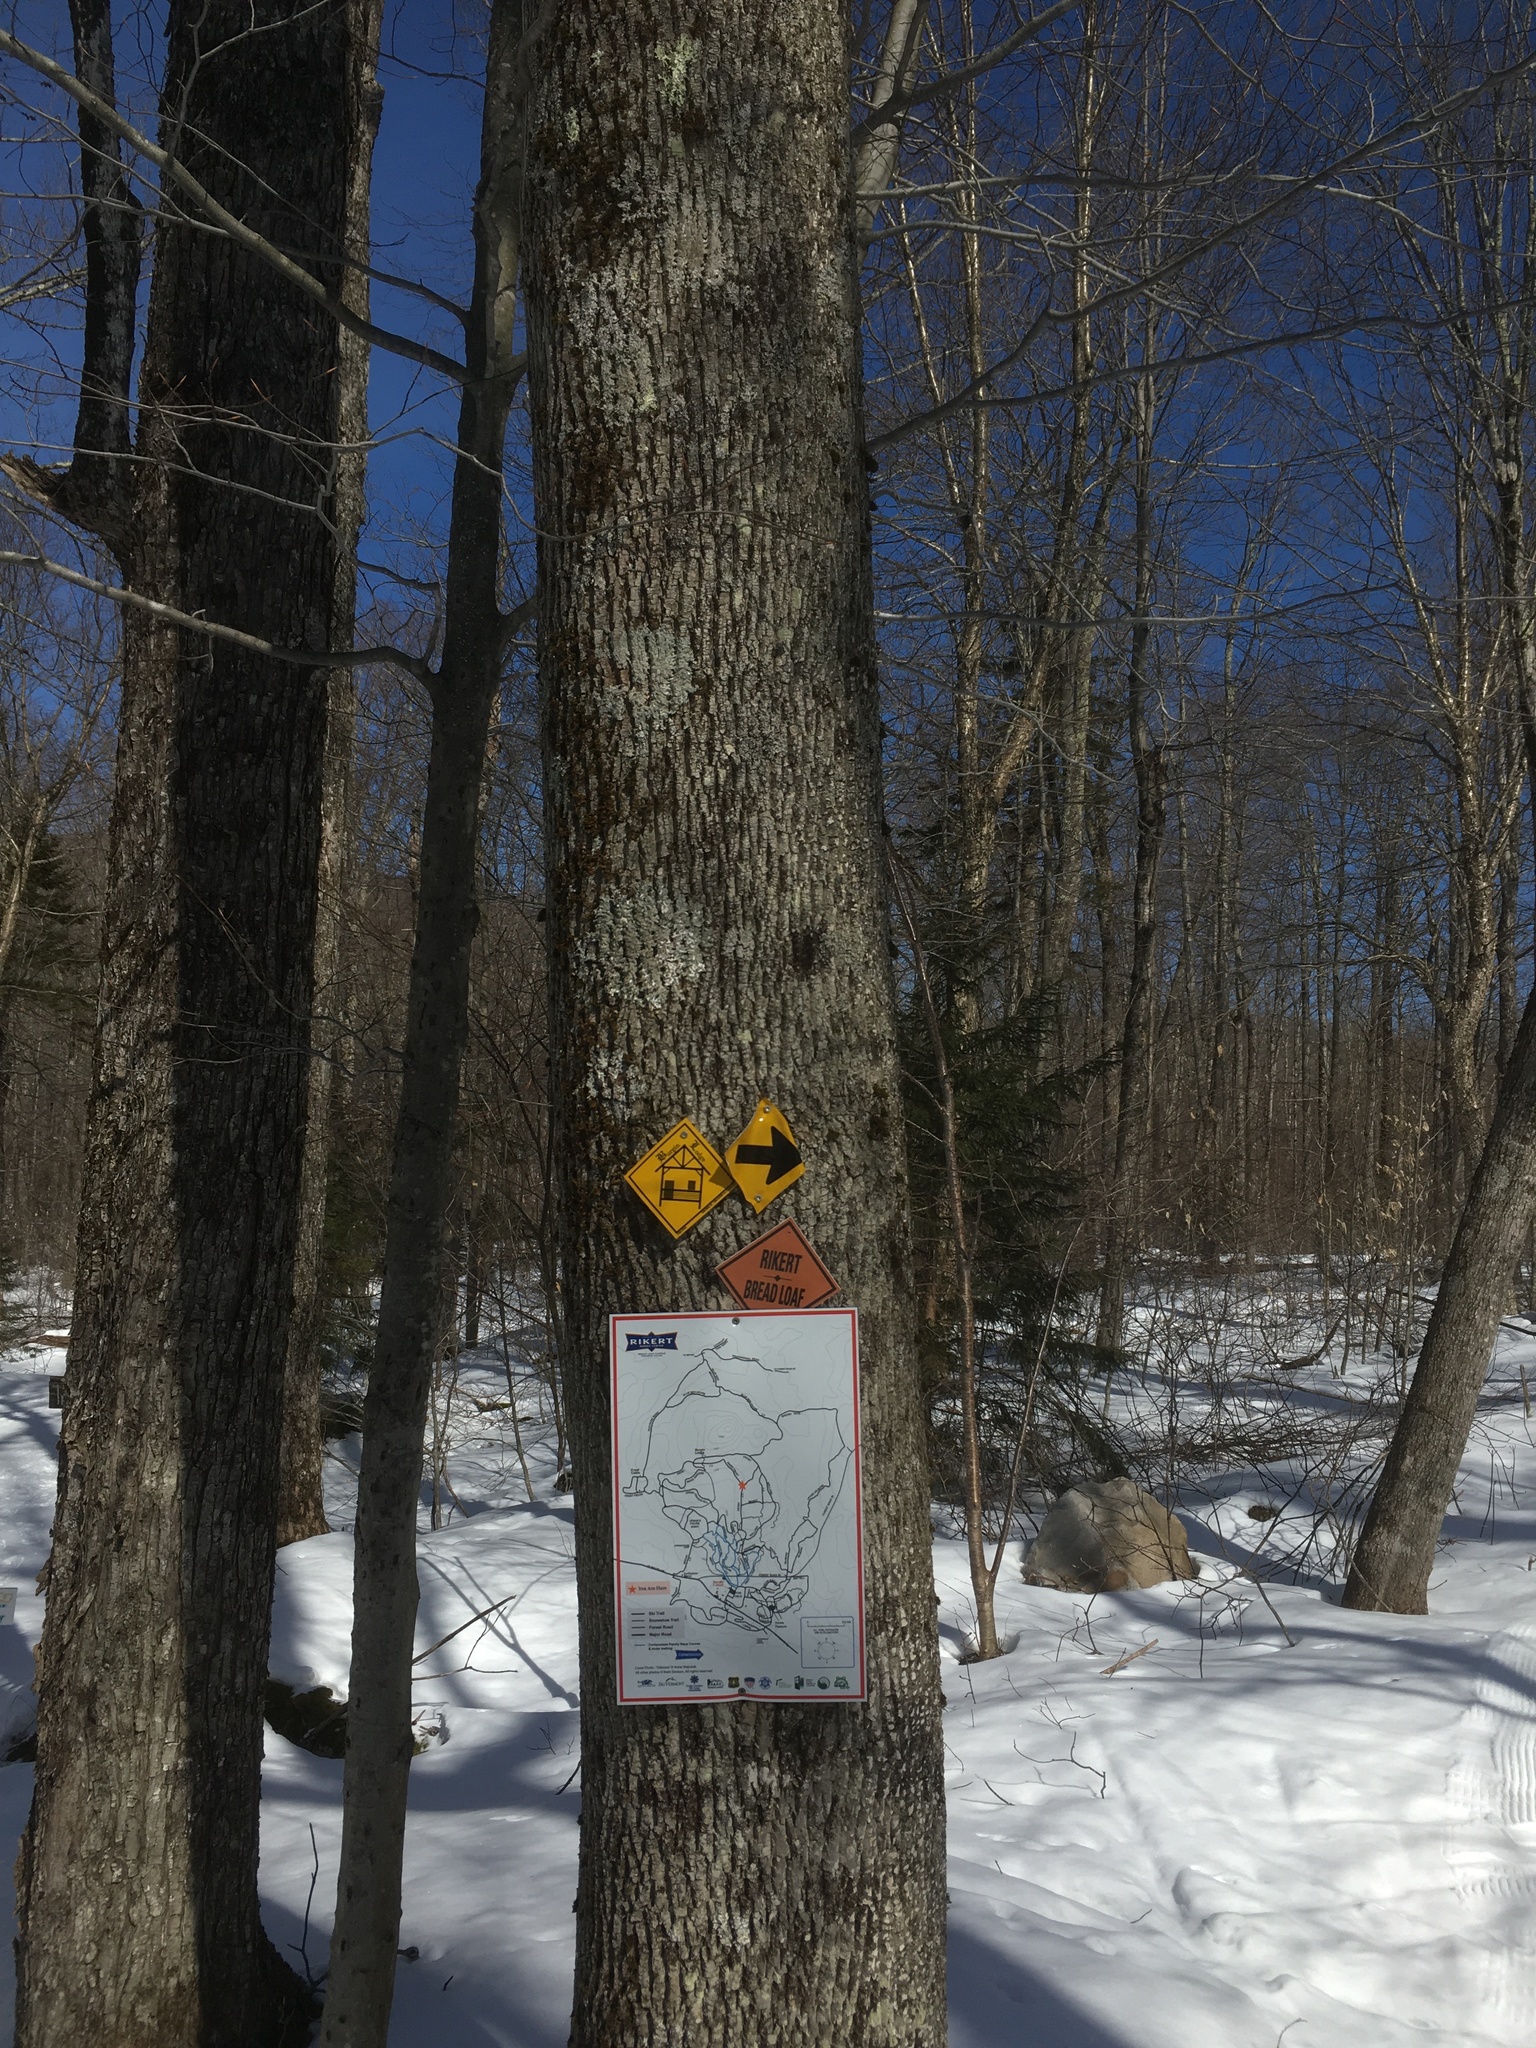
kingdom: Plantae
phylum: Tracheophyta
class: Magnoliopsida
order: Lamiales
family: Oleaceae
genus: Fraxinus
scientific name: Fraxinus americana
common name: White ash
